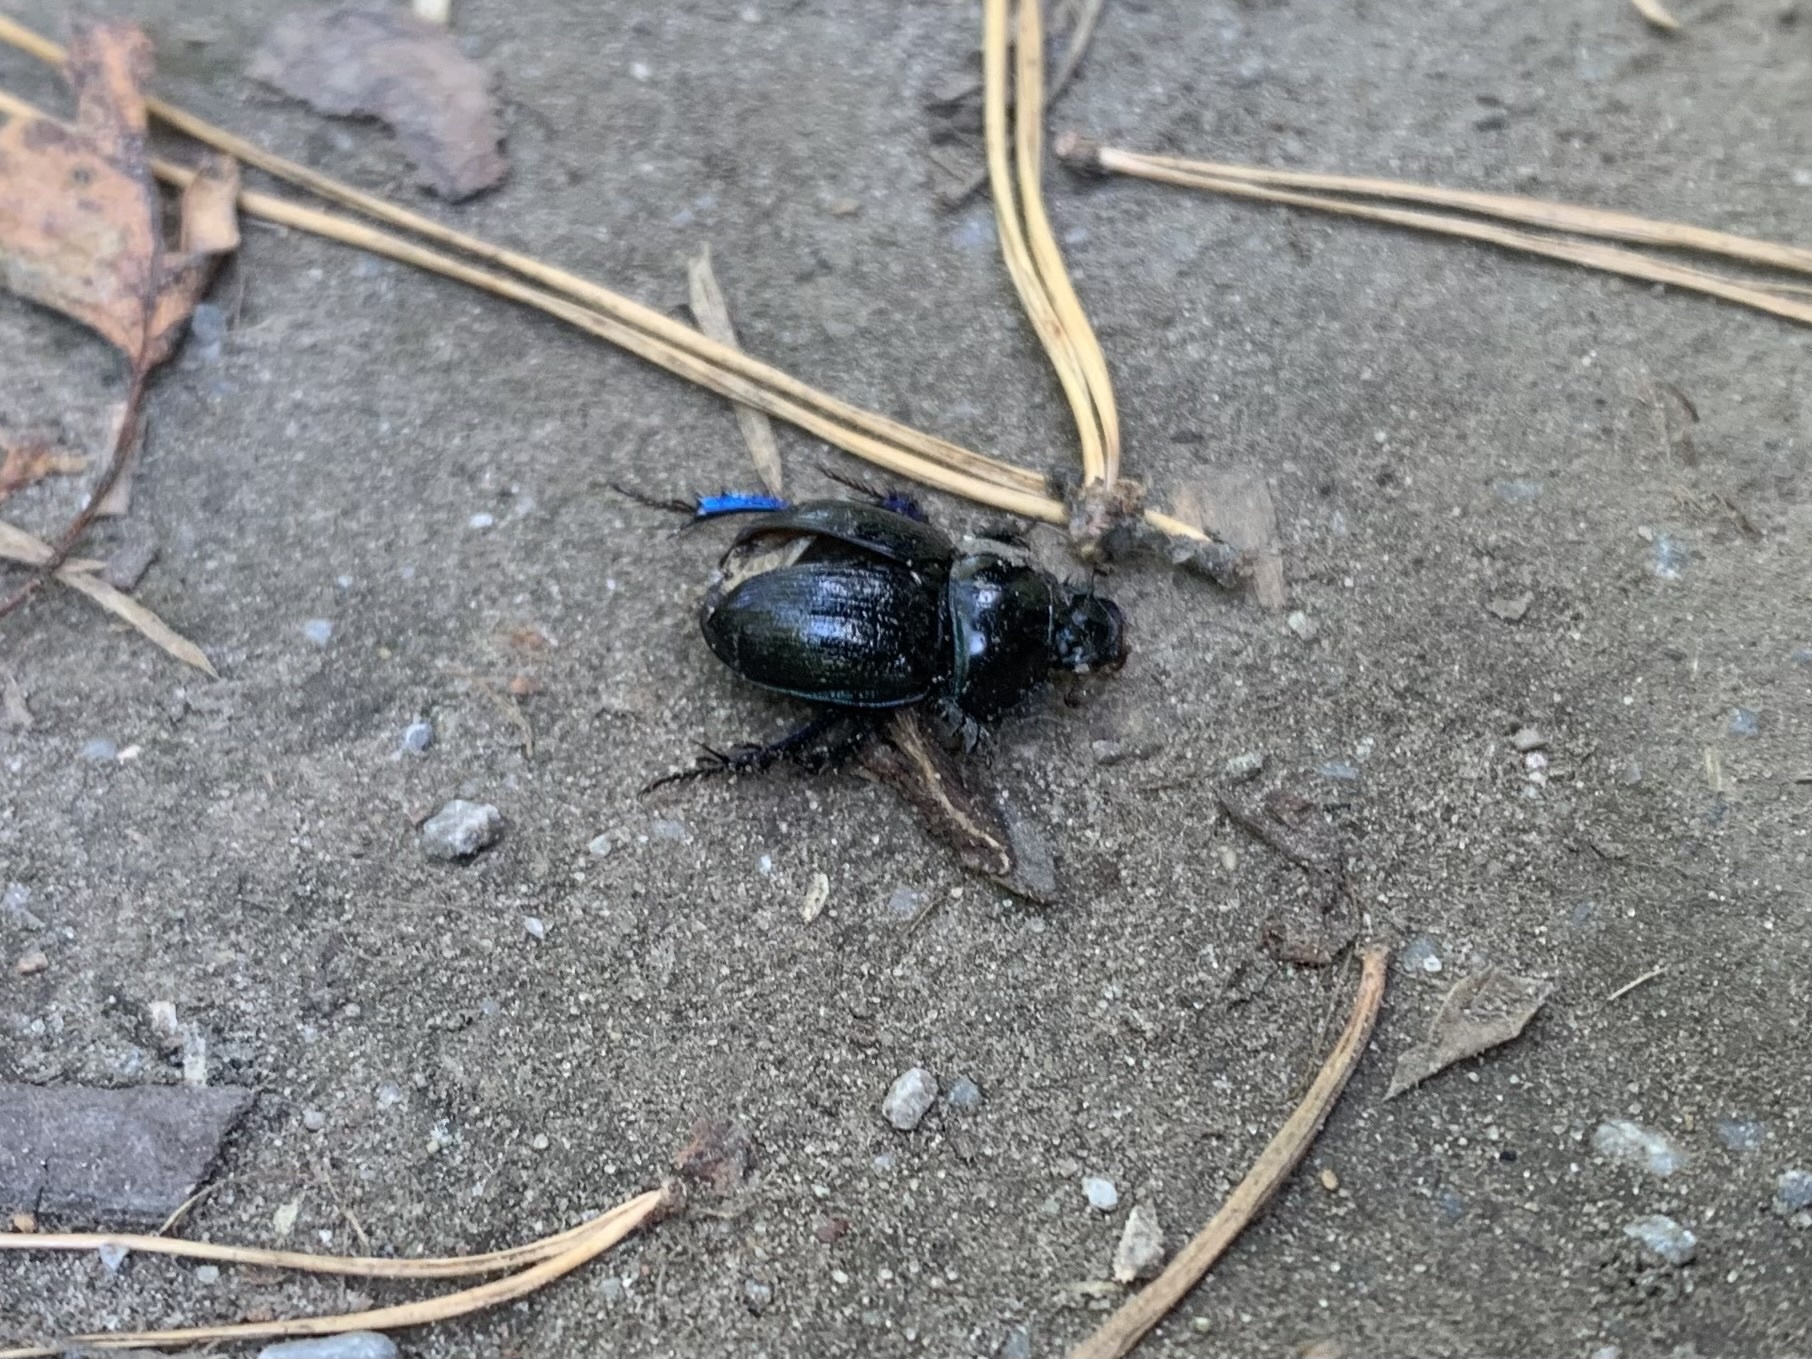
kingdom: Animalia
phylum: Arthropoda
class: Insecta
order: Coleoptera
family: Geotrupidae
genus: Anoplotrupes
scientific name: Anoplotrupes stercorosus
